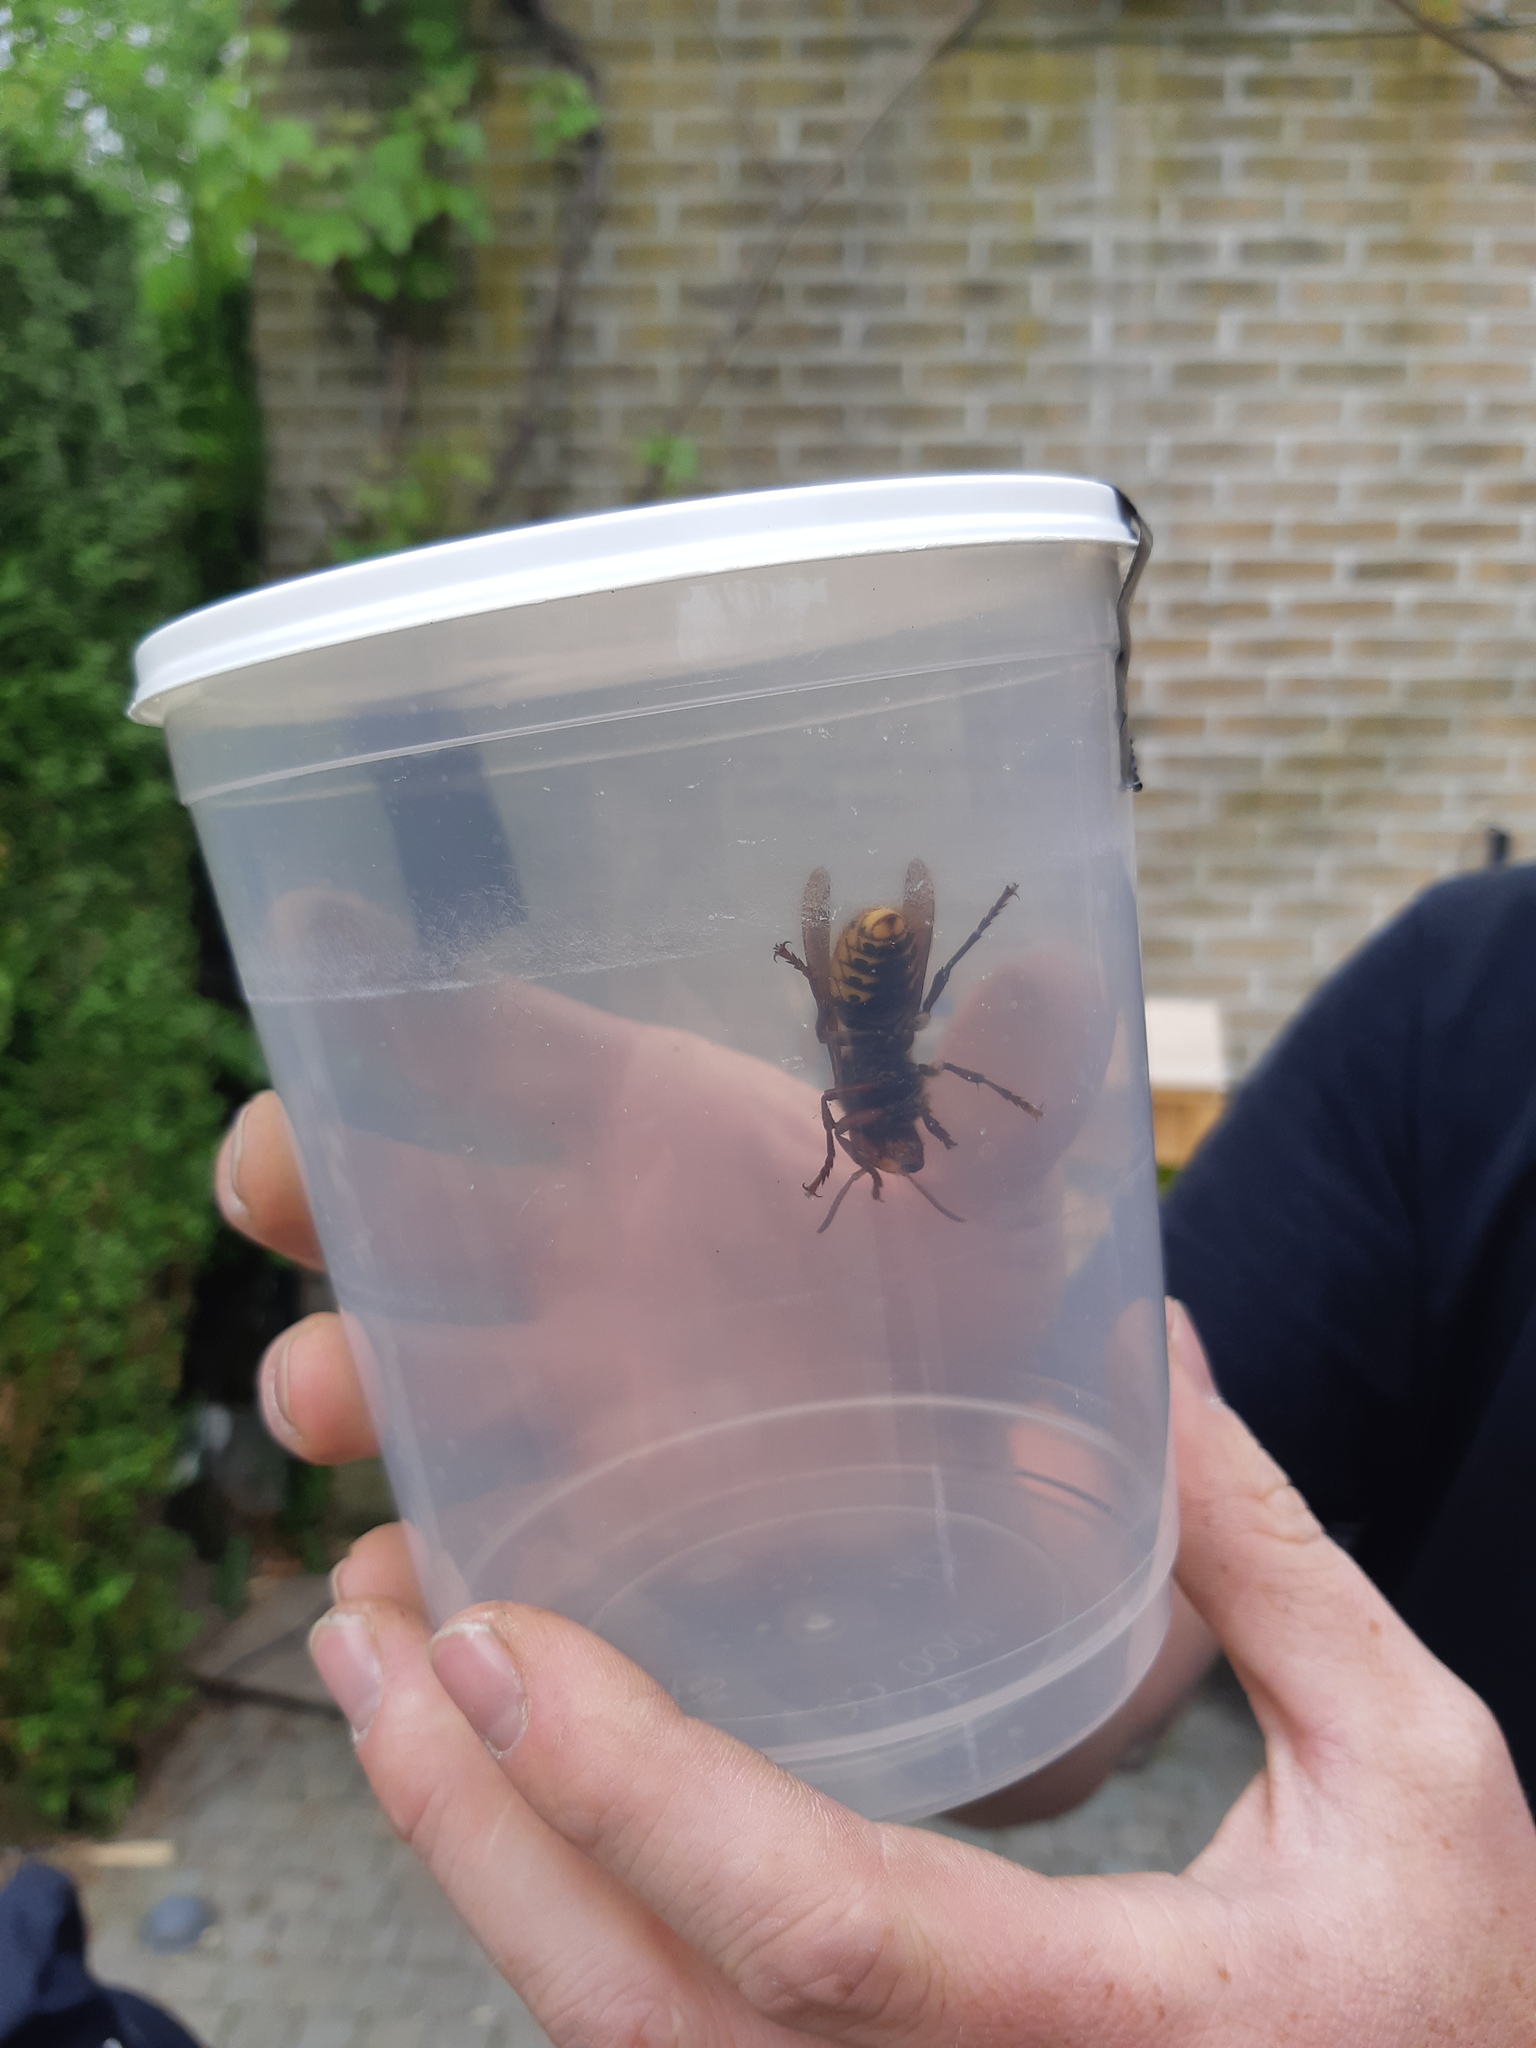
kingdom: Animalia
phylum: Arthropoda
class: Insecta
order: Hymenoptera
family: Vespidae
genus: Vespa
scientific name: Vespa crabro
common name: Hornet
